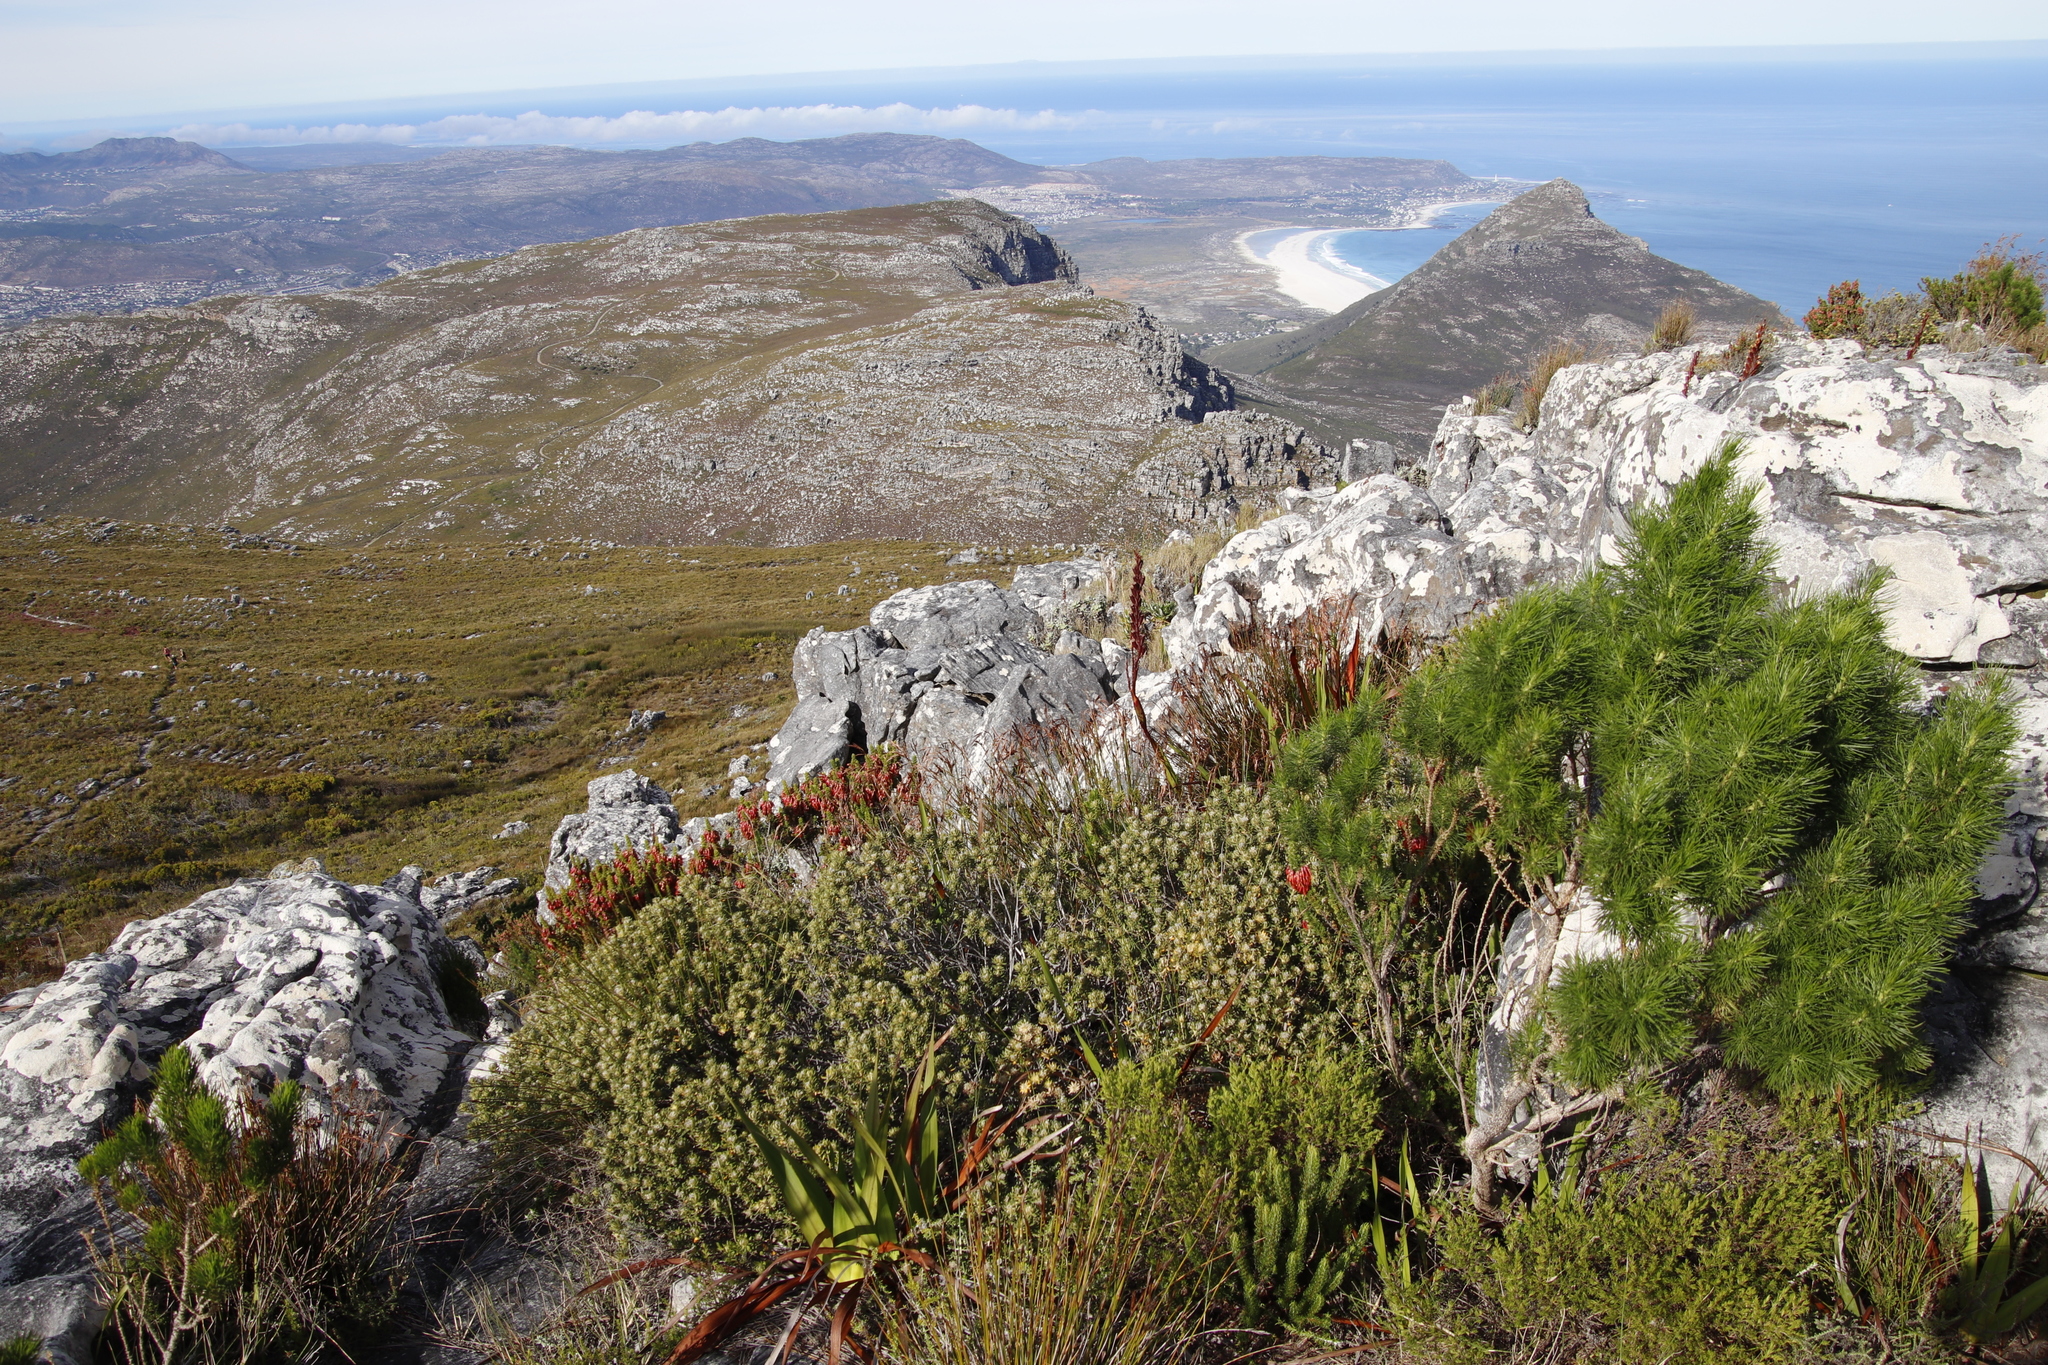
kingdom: Plantae
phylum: Tracheophyta
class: Magnoliopsida
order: Rosales
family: Rhamnaceae
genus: Phylica
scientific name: Phylica dioica
